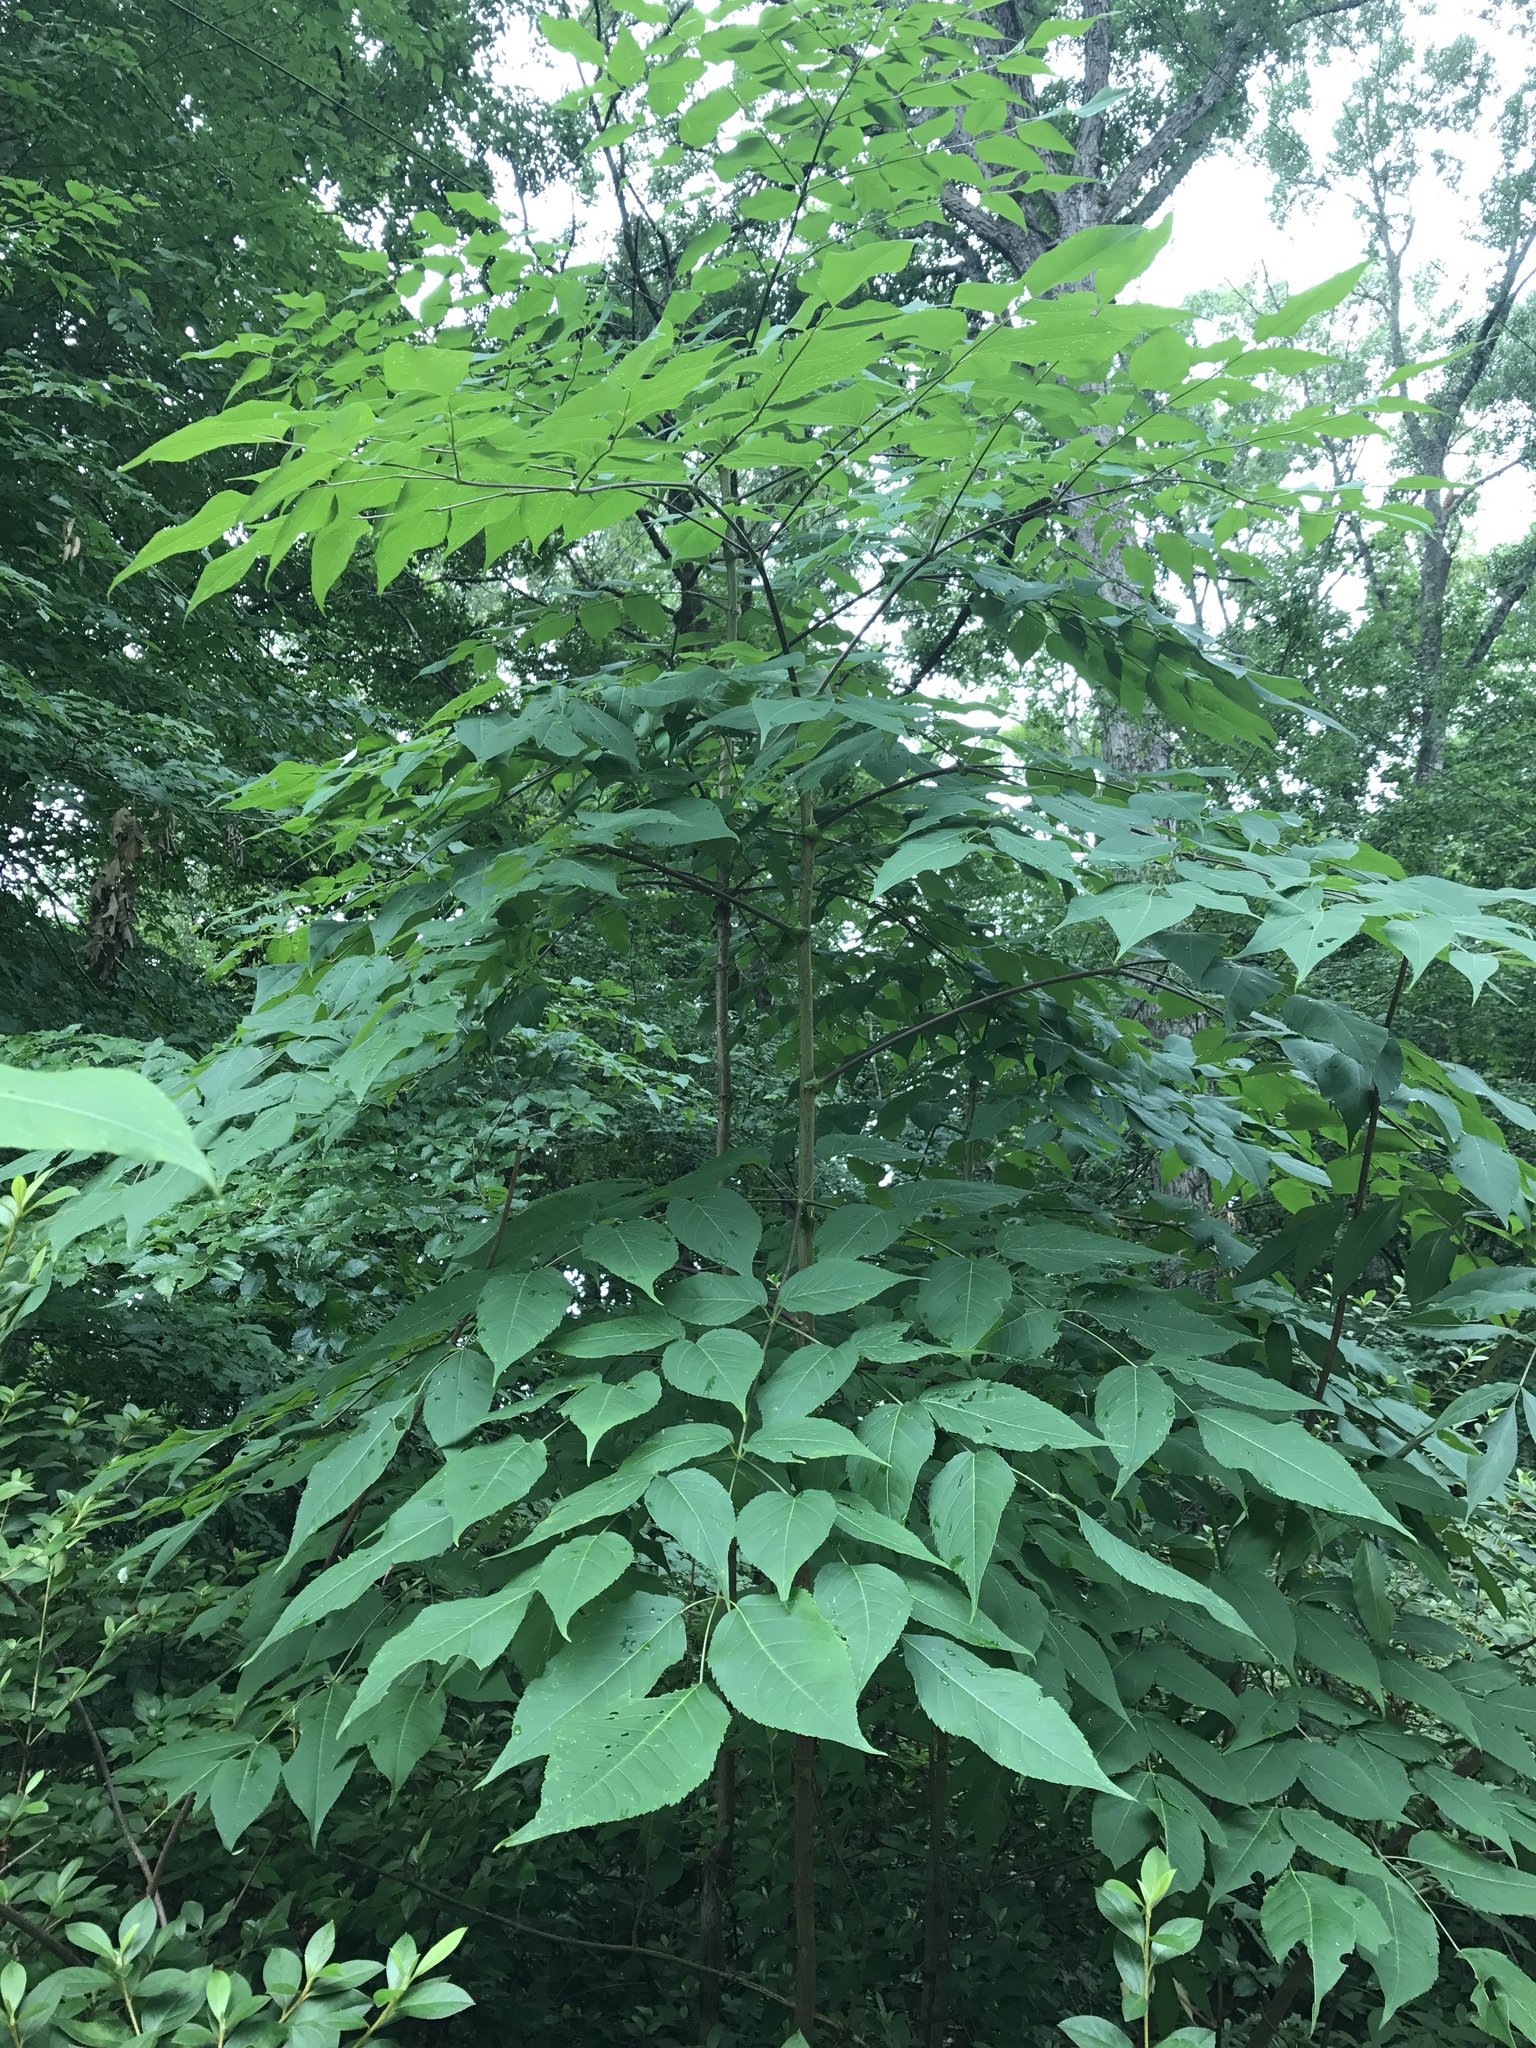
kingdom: Plantae
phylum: Tracheophyta
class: Magnoliopsida
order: Apiales
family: Araliaceae
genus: Aralia
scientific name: Aralia spinosa
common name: Hercules'-club
